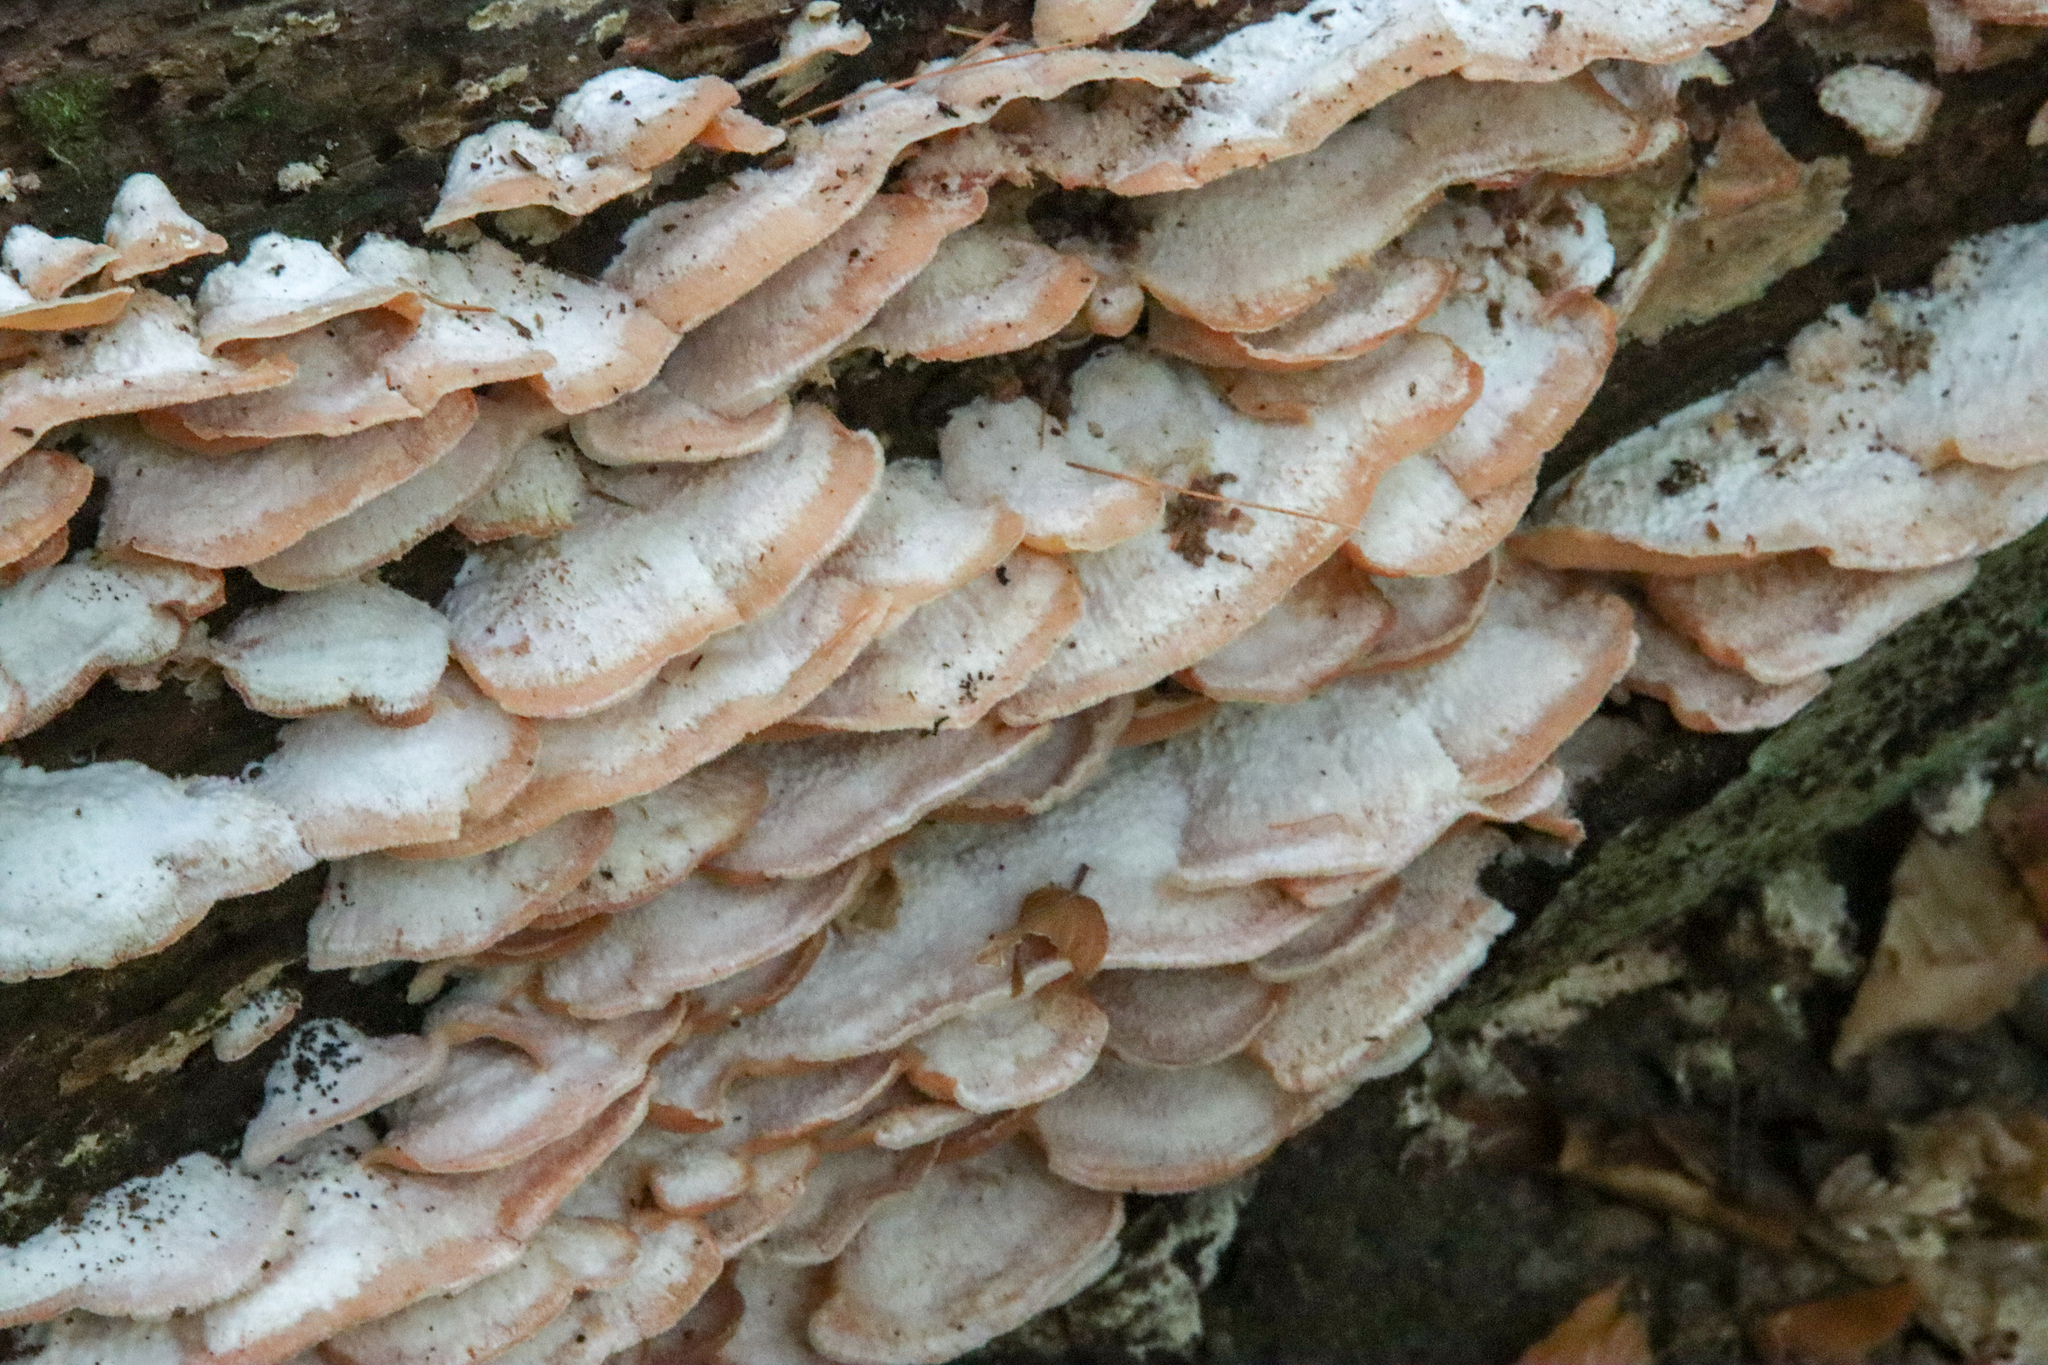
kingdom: Fungi
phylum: Basidiomycota
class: Agaricomycetes
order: Polyporales
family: Meruliaceae
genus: Phlebia
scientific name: Phlebia tremellosa
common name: Jelly rot
